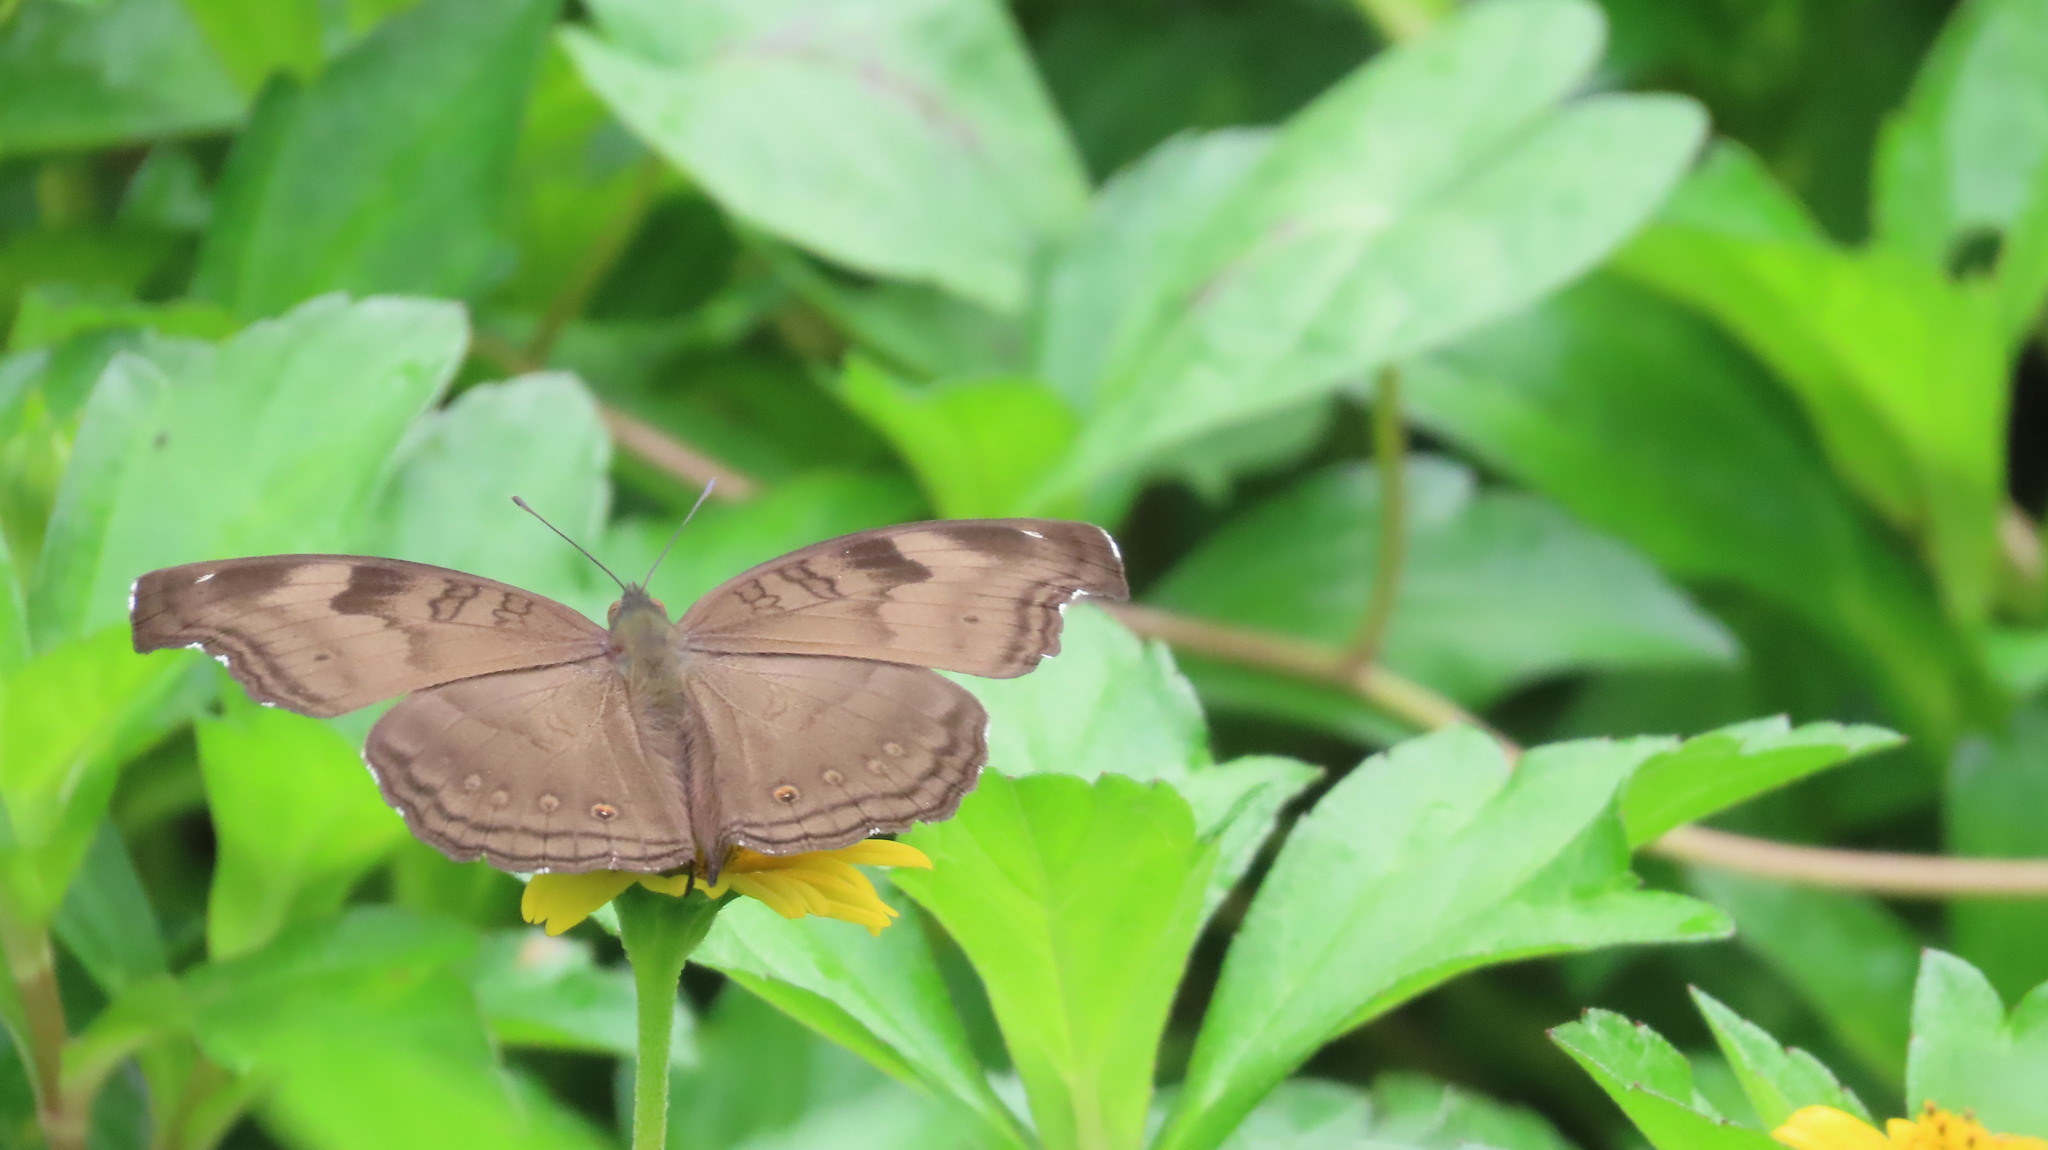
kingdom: Animalia
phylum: Arthropoda
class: Insecta
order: Lepidoptera
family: Nymphalidae
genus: Junonia
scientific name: Junonia iphita
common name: Chocolate pansy
